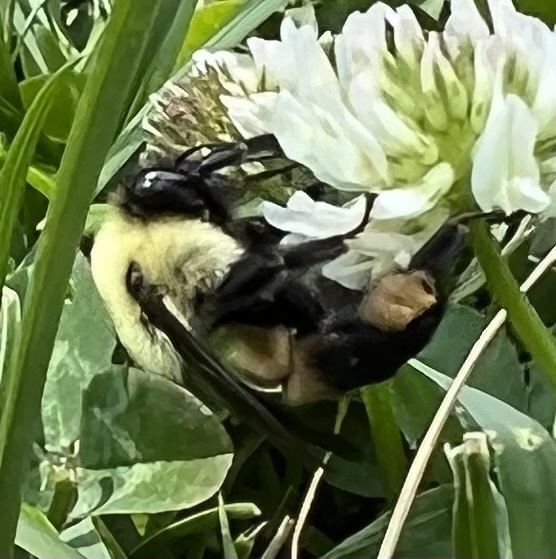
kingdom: Animalia
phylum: Arthropoda
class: Insecta
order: Hymenoptera
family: Apidae
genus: Bombus
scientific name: Bombus griseocollis
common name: Brown-belted bumble bee
